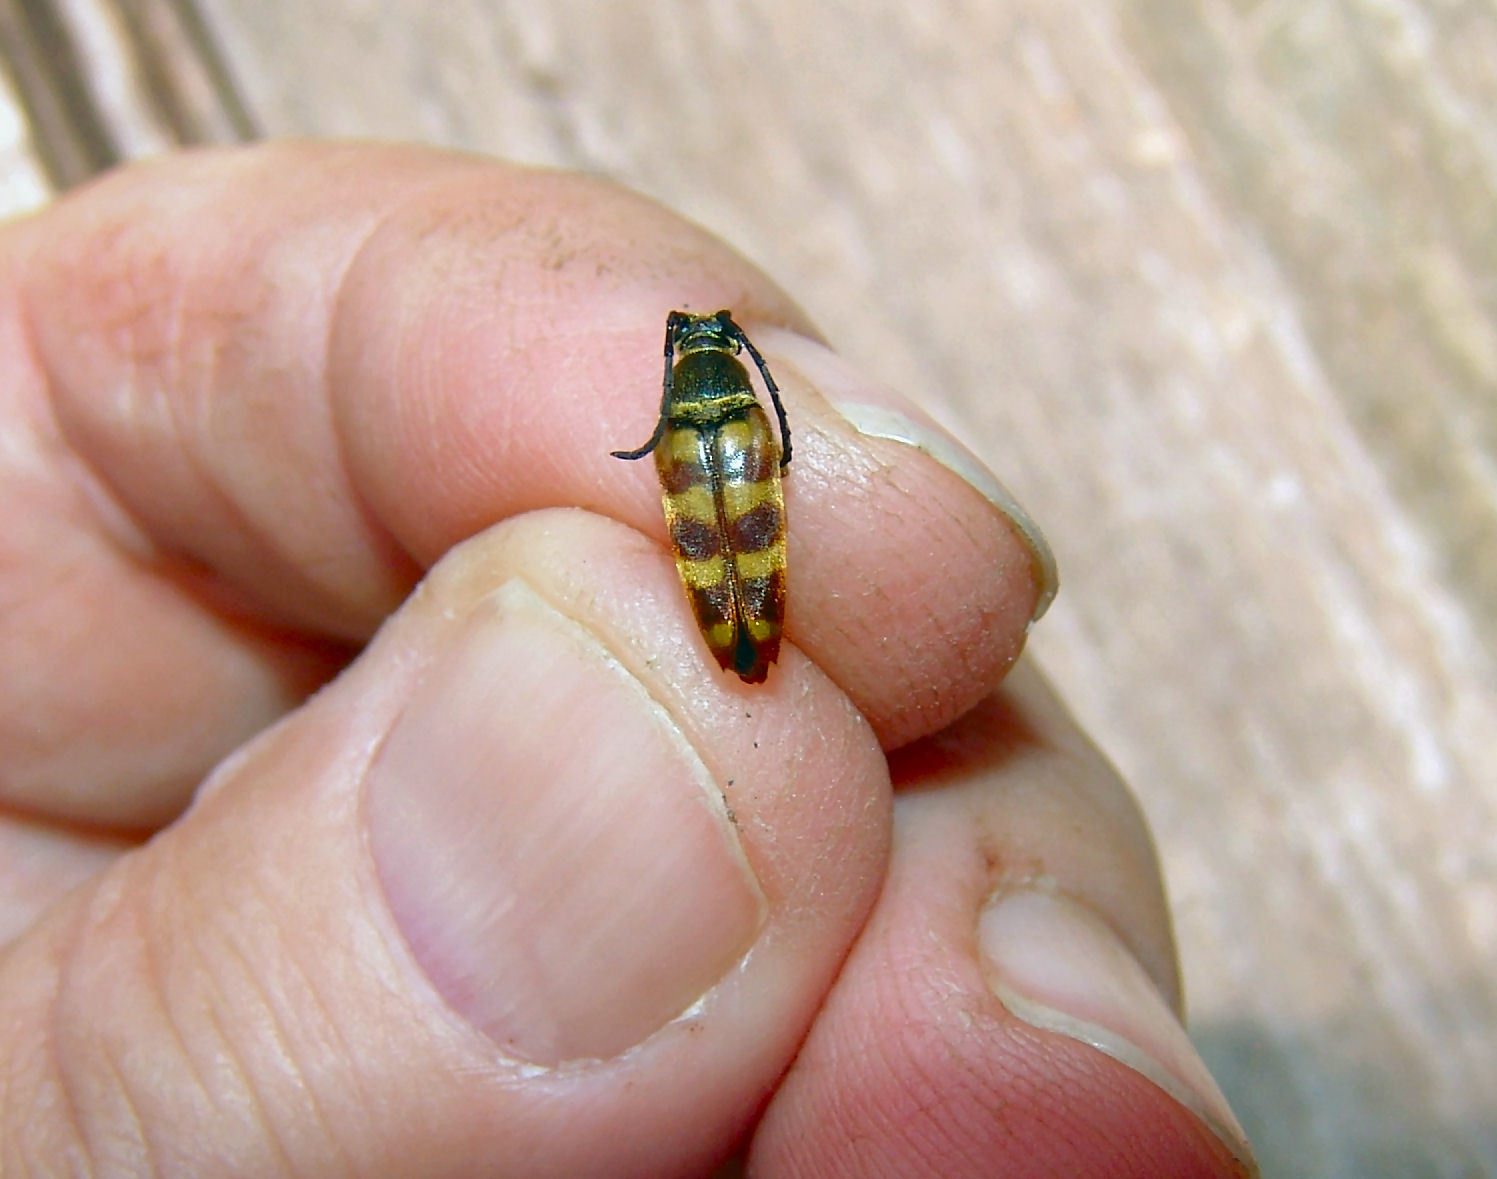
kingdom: Animalia
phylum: Arthropoda
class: Insecta
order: Coleoptera
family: Cerambycidae
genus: Typocerus
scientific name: Typocerus velutinus
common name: Banded longhorn beetle
